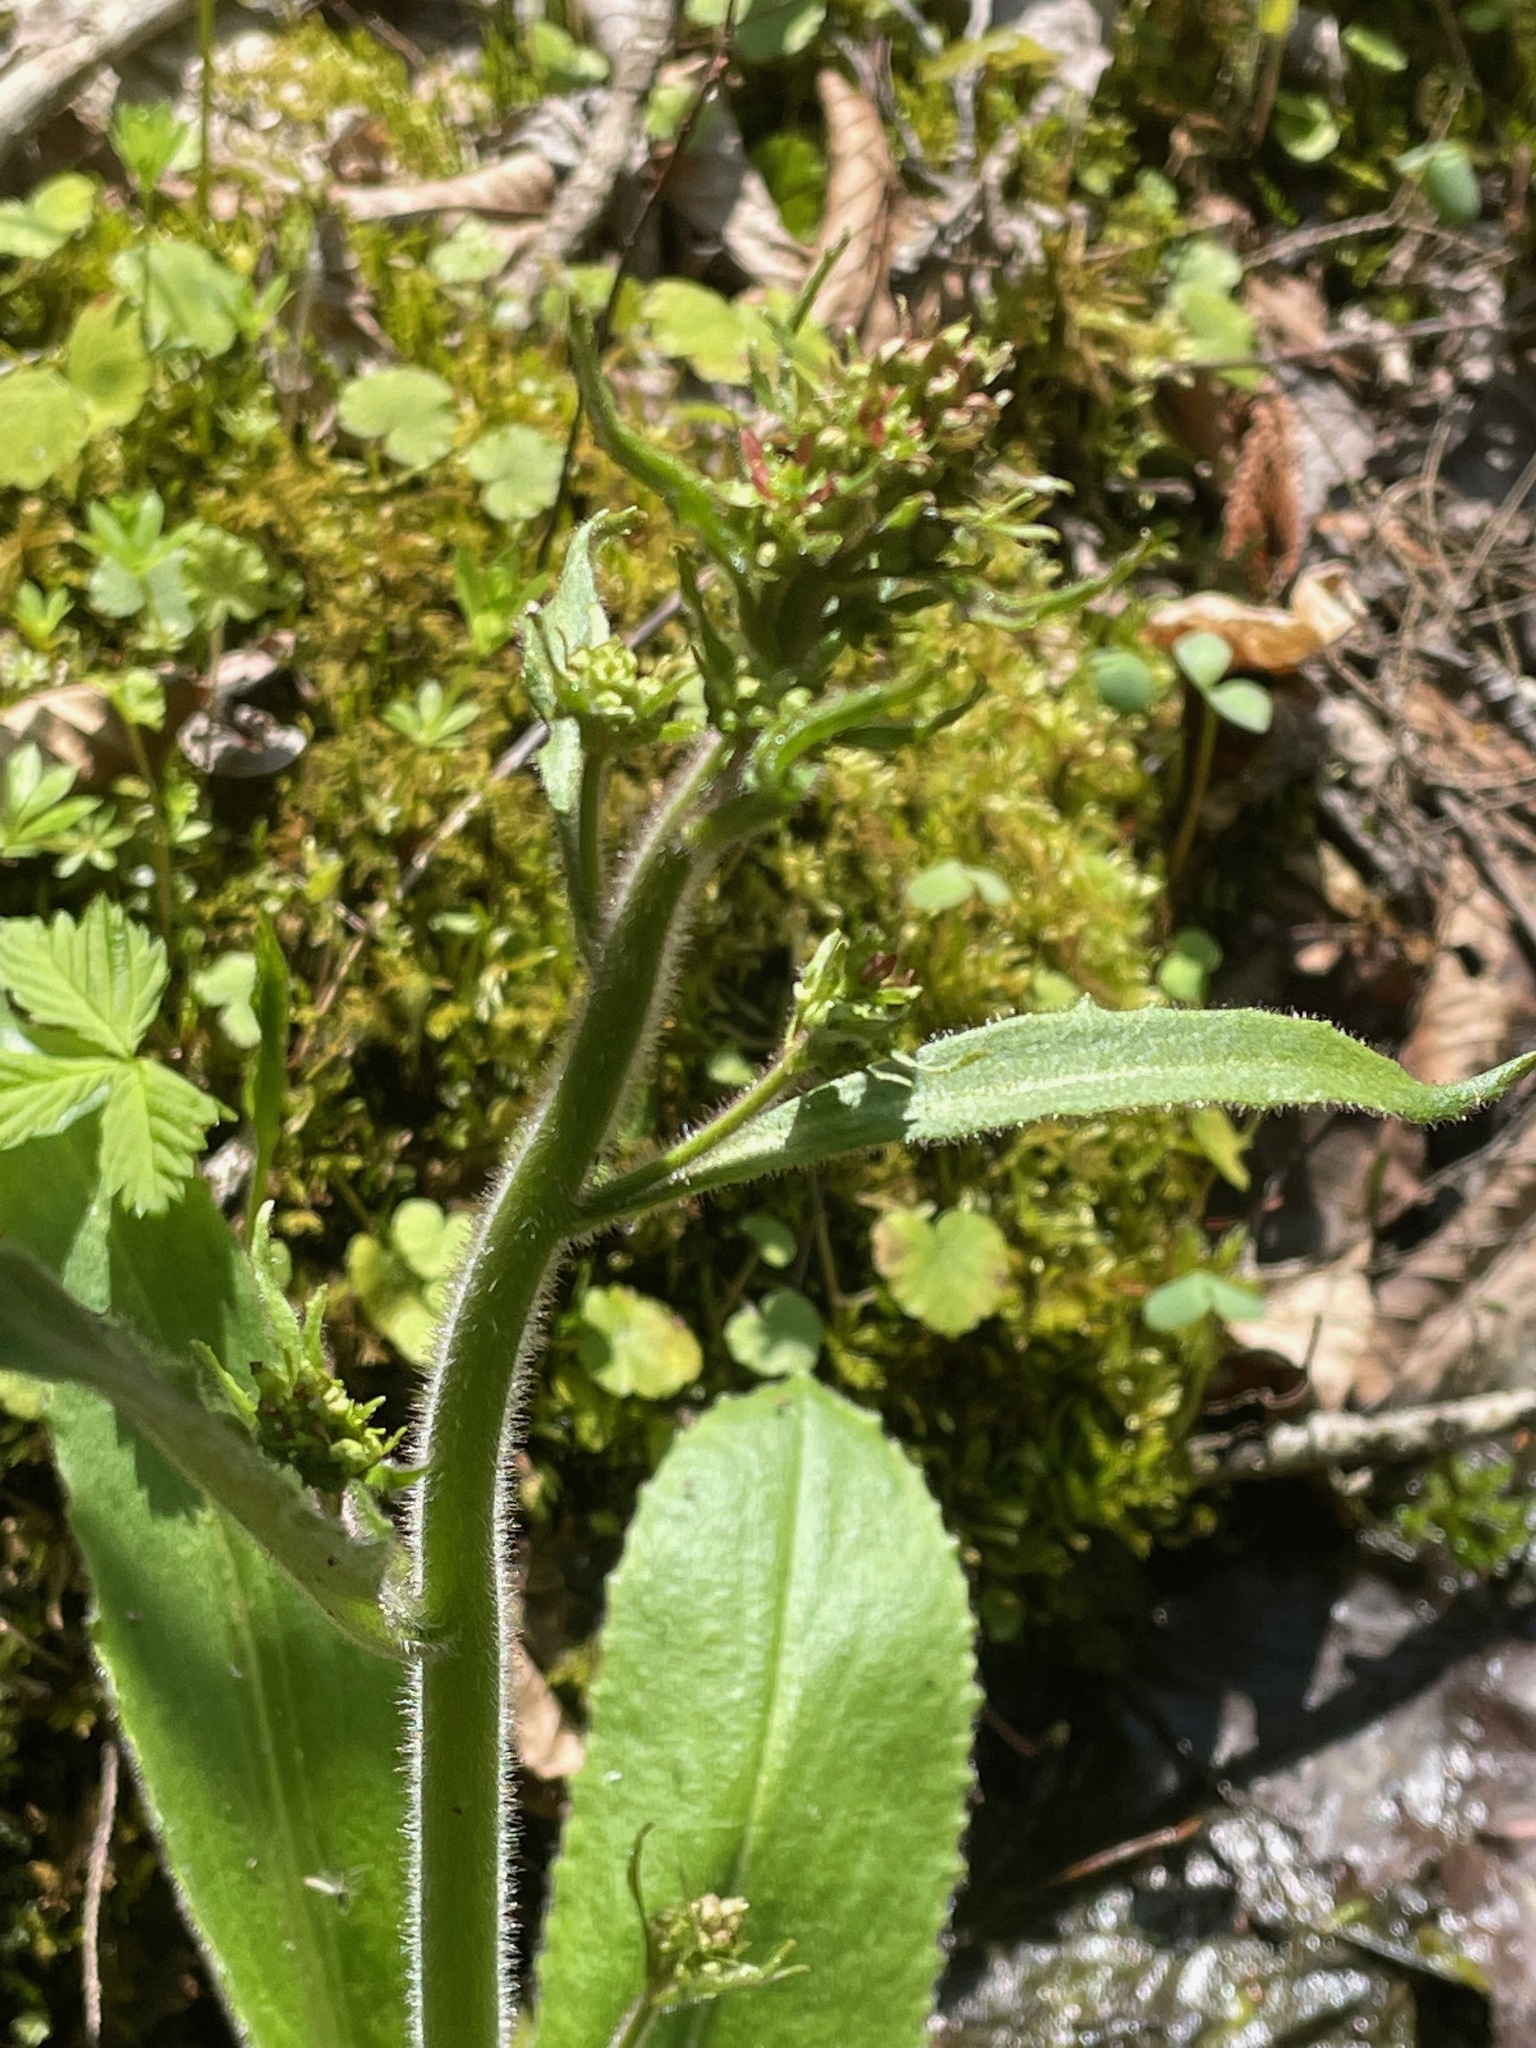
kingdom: Plantae
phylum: Tracheophyta
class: Magnoliopsida
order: Saxifragales
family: Saxifragaceae
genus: Micranthes
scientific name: Micranthes pensylvanica
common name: Marsh saxifrage
